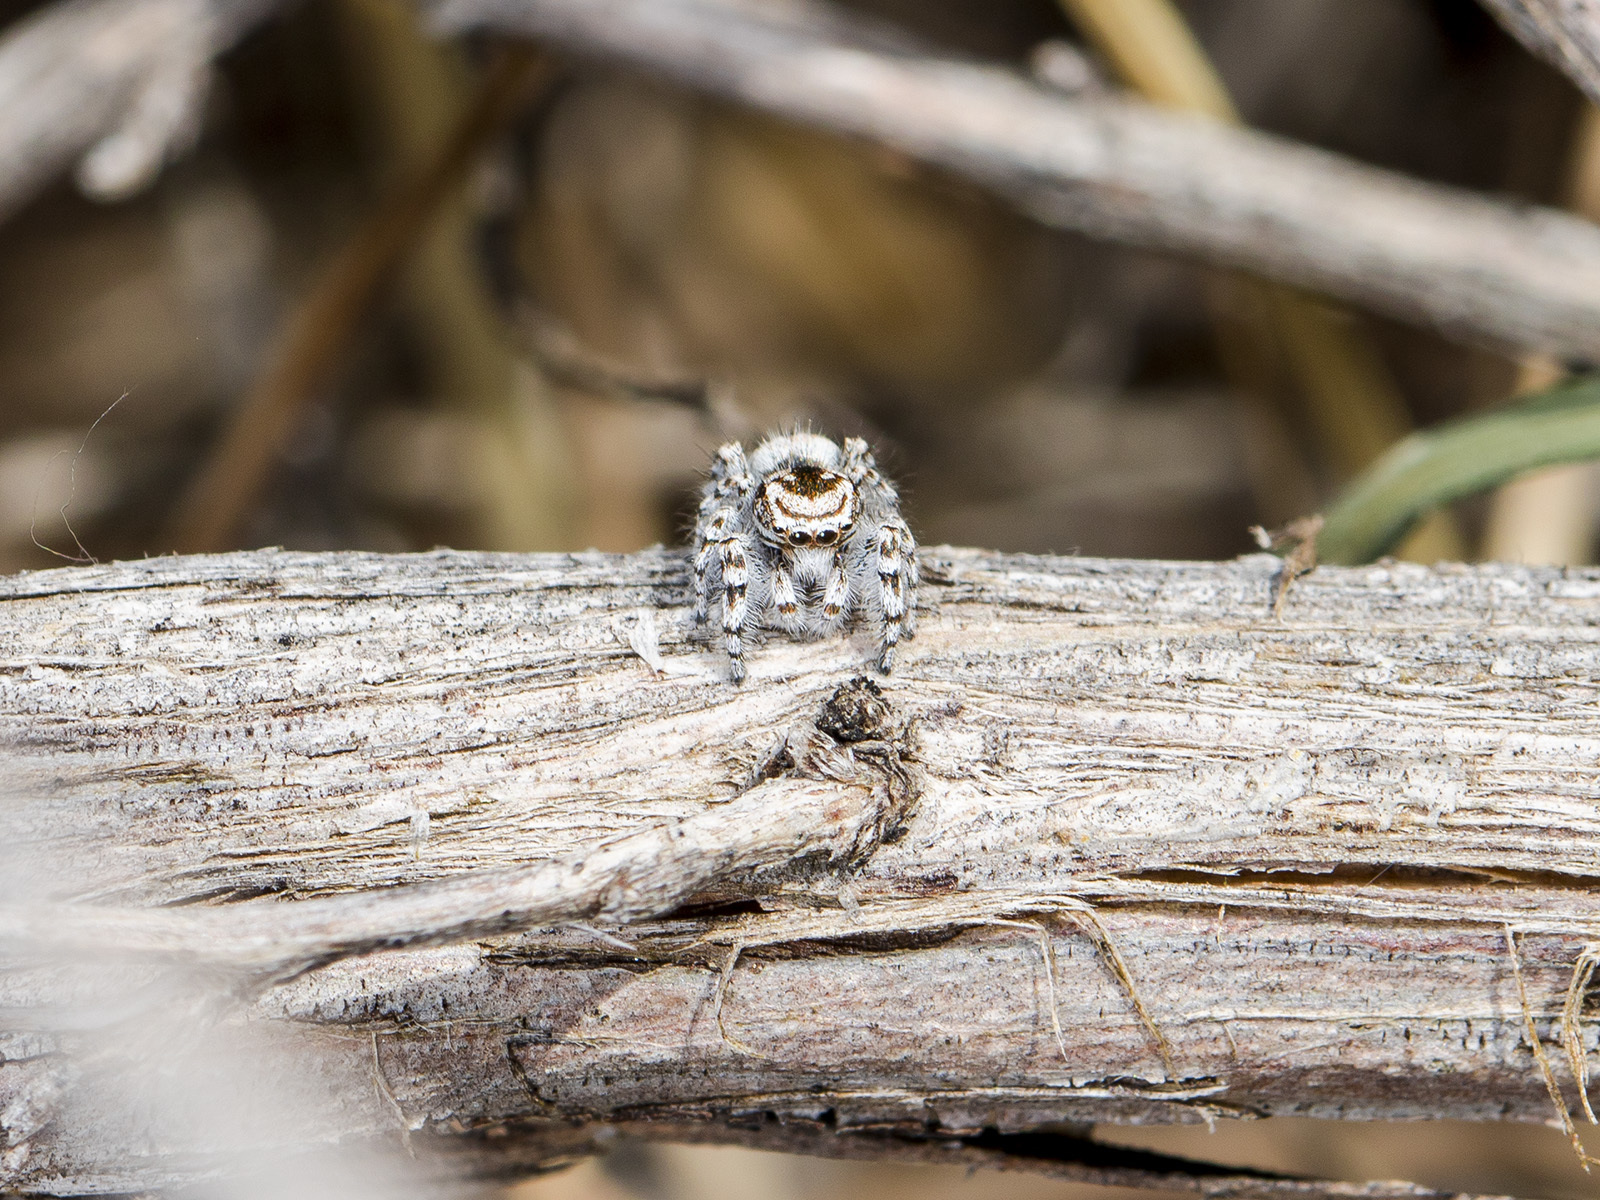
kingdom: Animalia
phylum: Arthropoda
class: Arachnida
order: Araneae
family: Salticidae
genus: Pseudomogrus
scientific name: Pseudomogrus dalaensis
